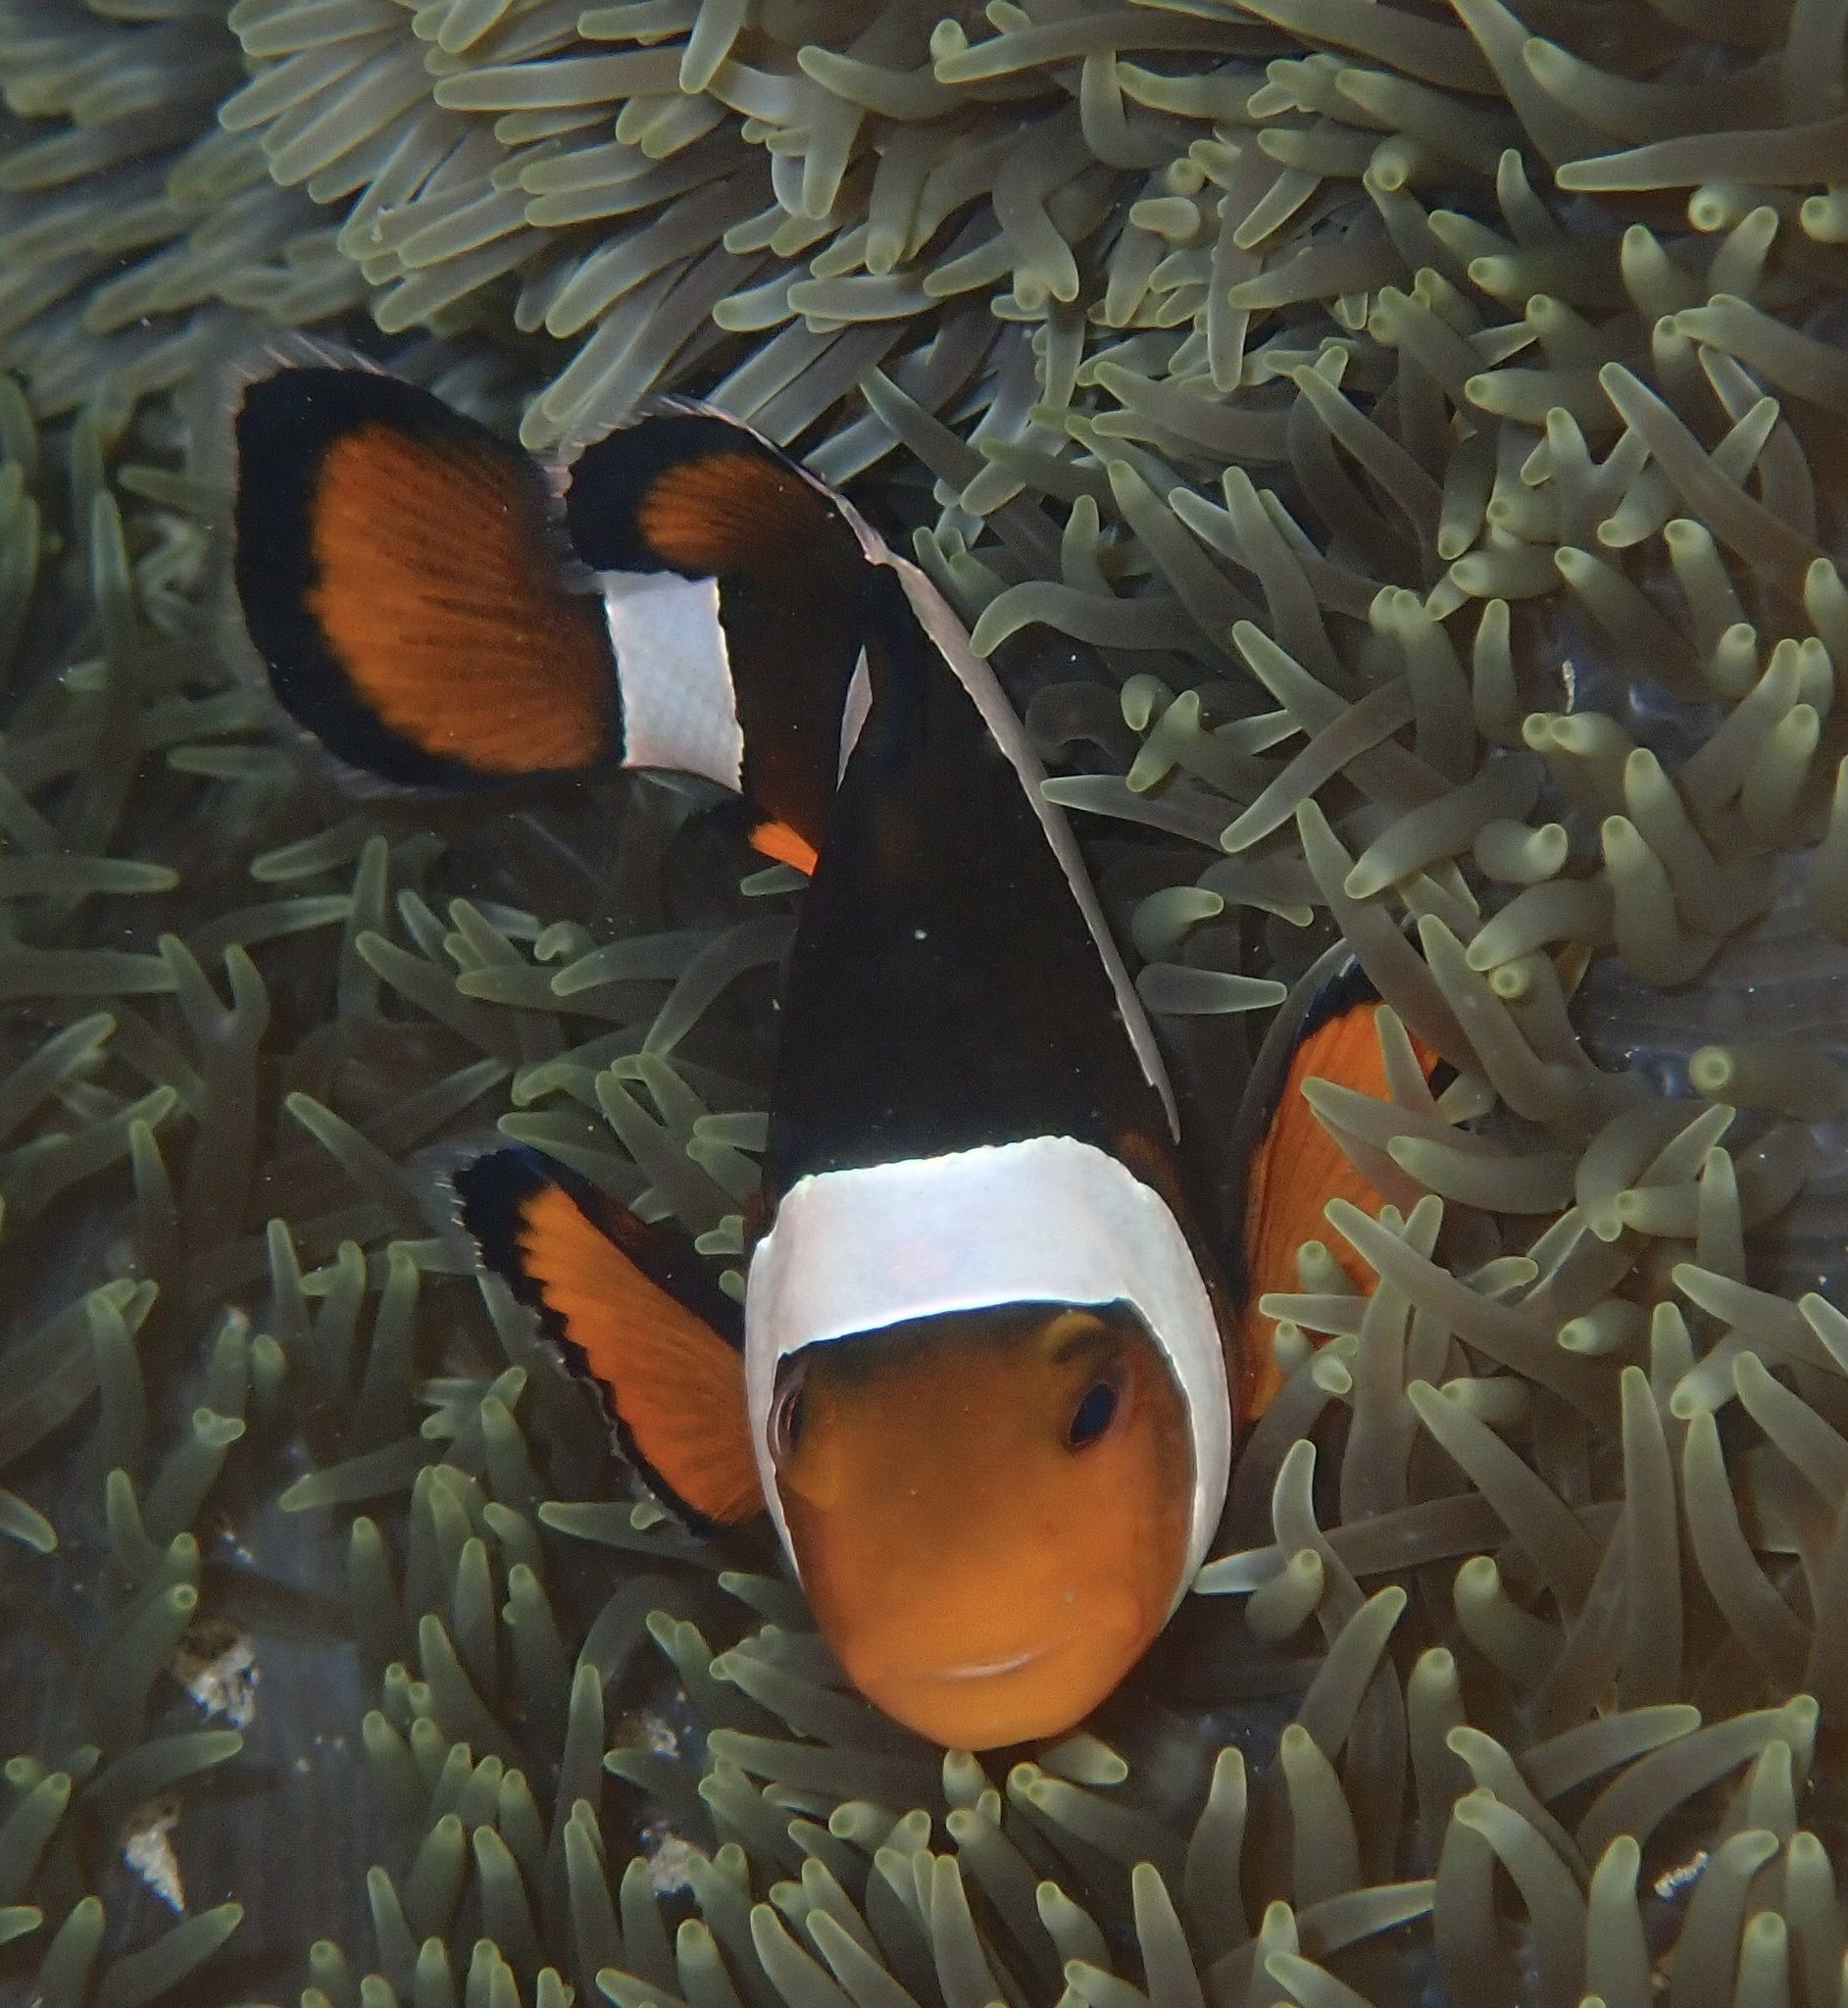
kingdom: Animalia
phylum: Chordata
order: Perciformes
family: Pomacentridae
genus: Amphiprion
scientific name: Amphiprion ocellaris
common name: Clown anemonefish
